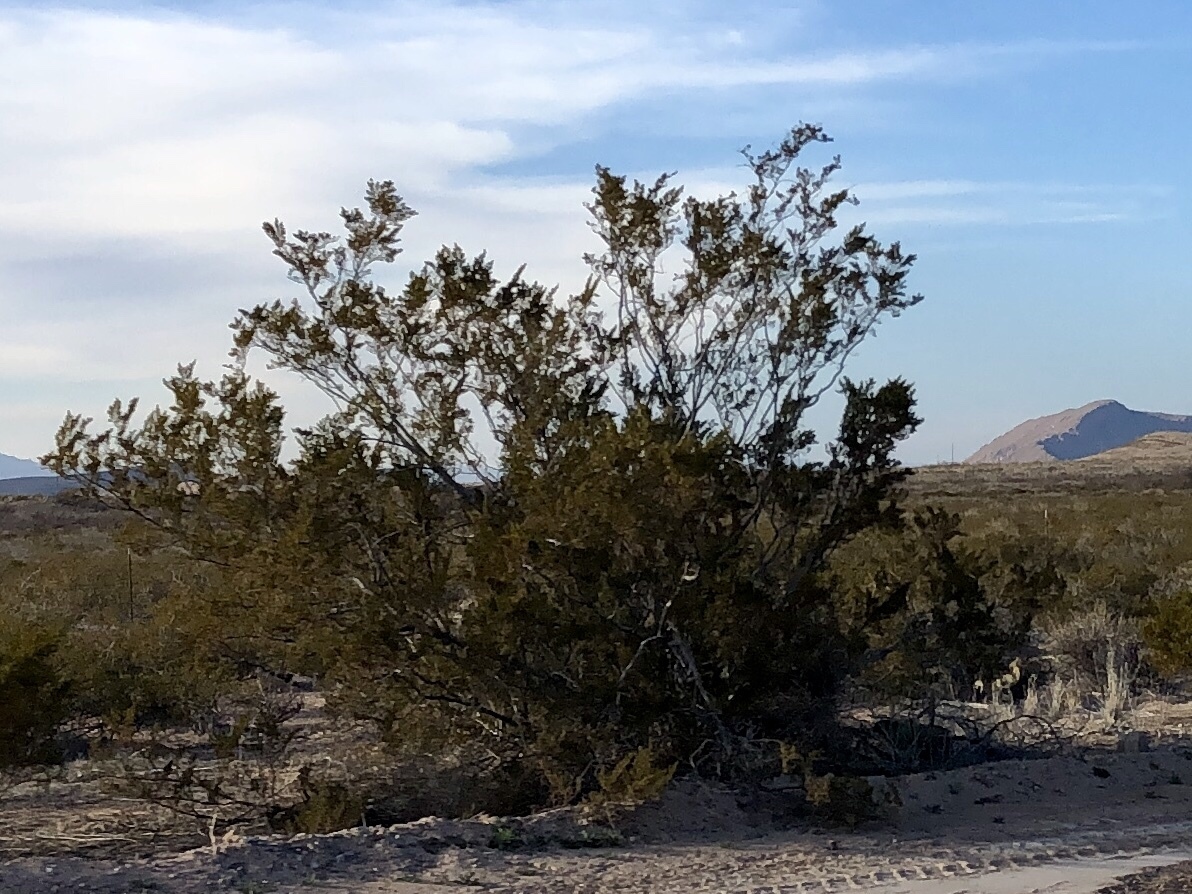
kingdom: Plantae
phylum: Tracheophyta
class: Magnoliopsida
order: Zygophyllales
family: Zygophyllaceae
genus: Larrea
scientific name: Larrea tridentata
